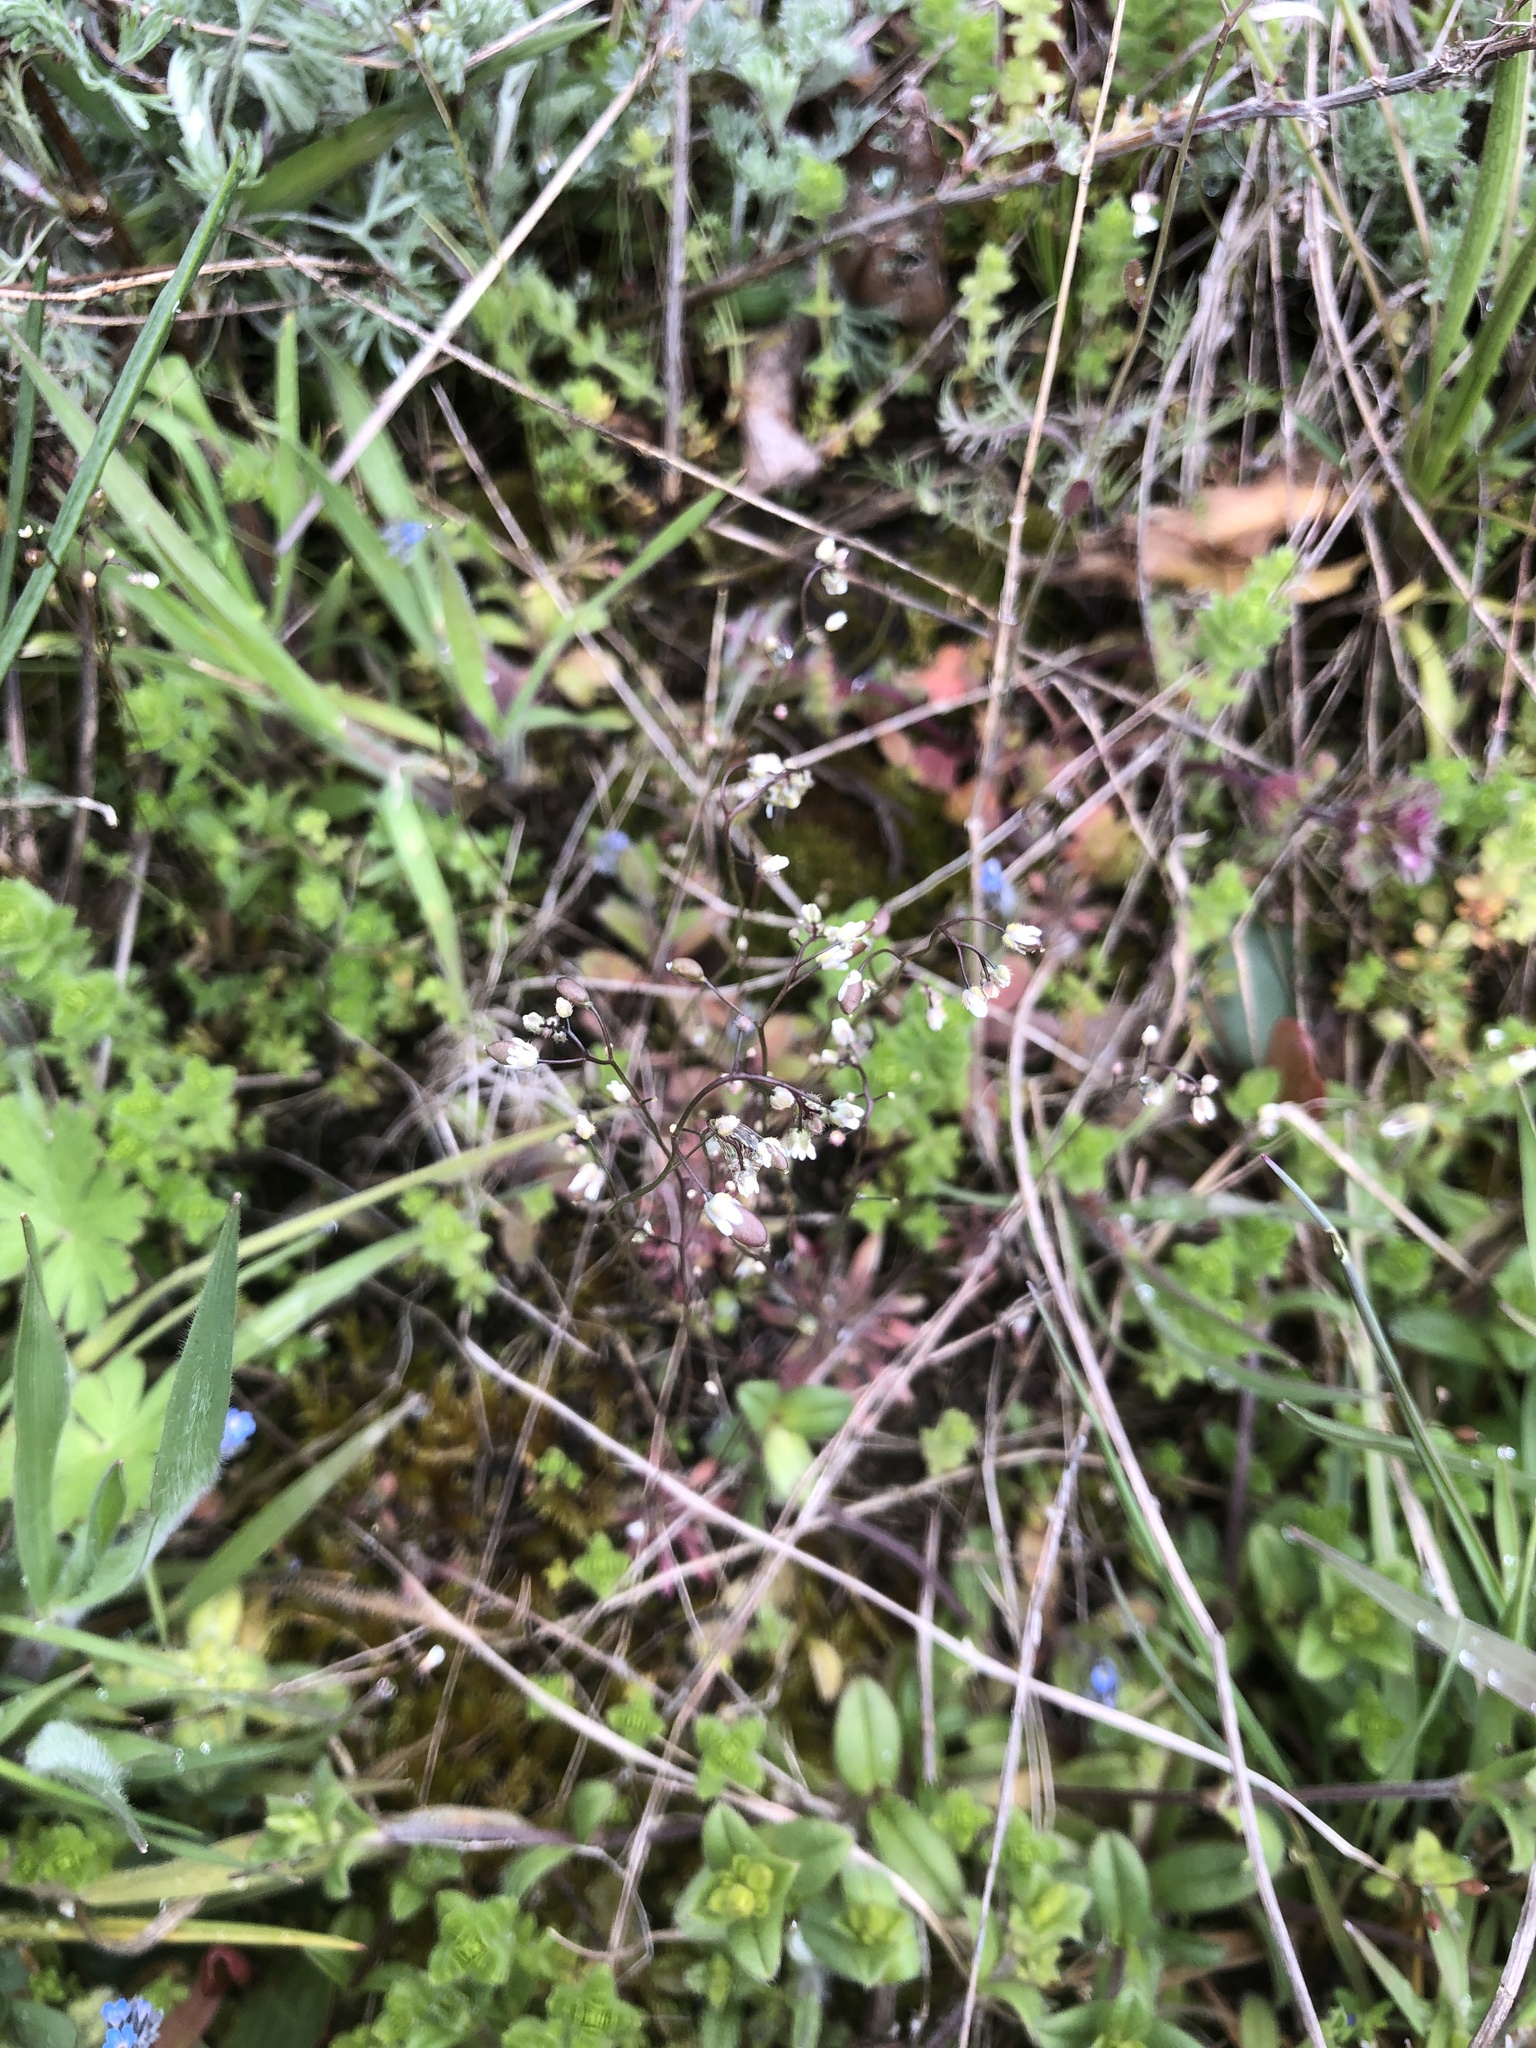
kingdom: Plantae
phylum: Tracheophyta
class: Magnoliopsida
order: Brassicales
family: Brassicaceae
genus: Draba
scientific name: Draba verna
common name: Spring draba
